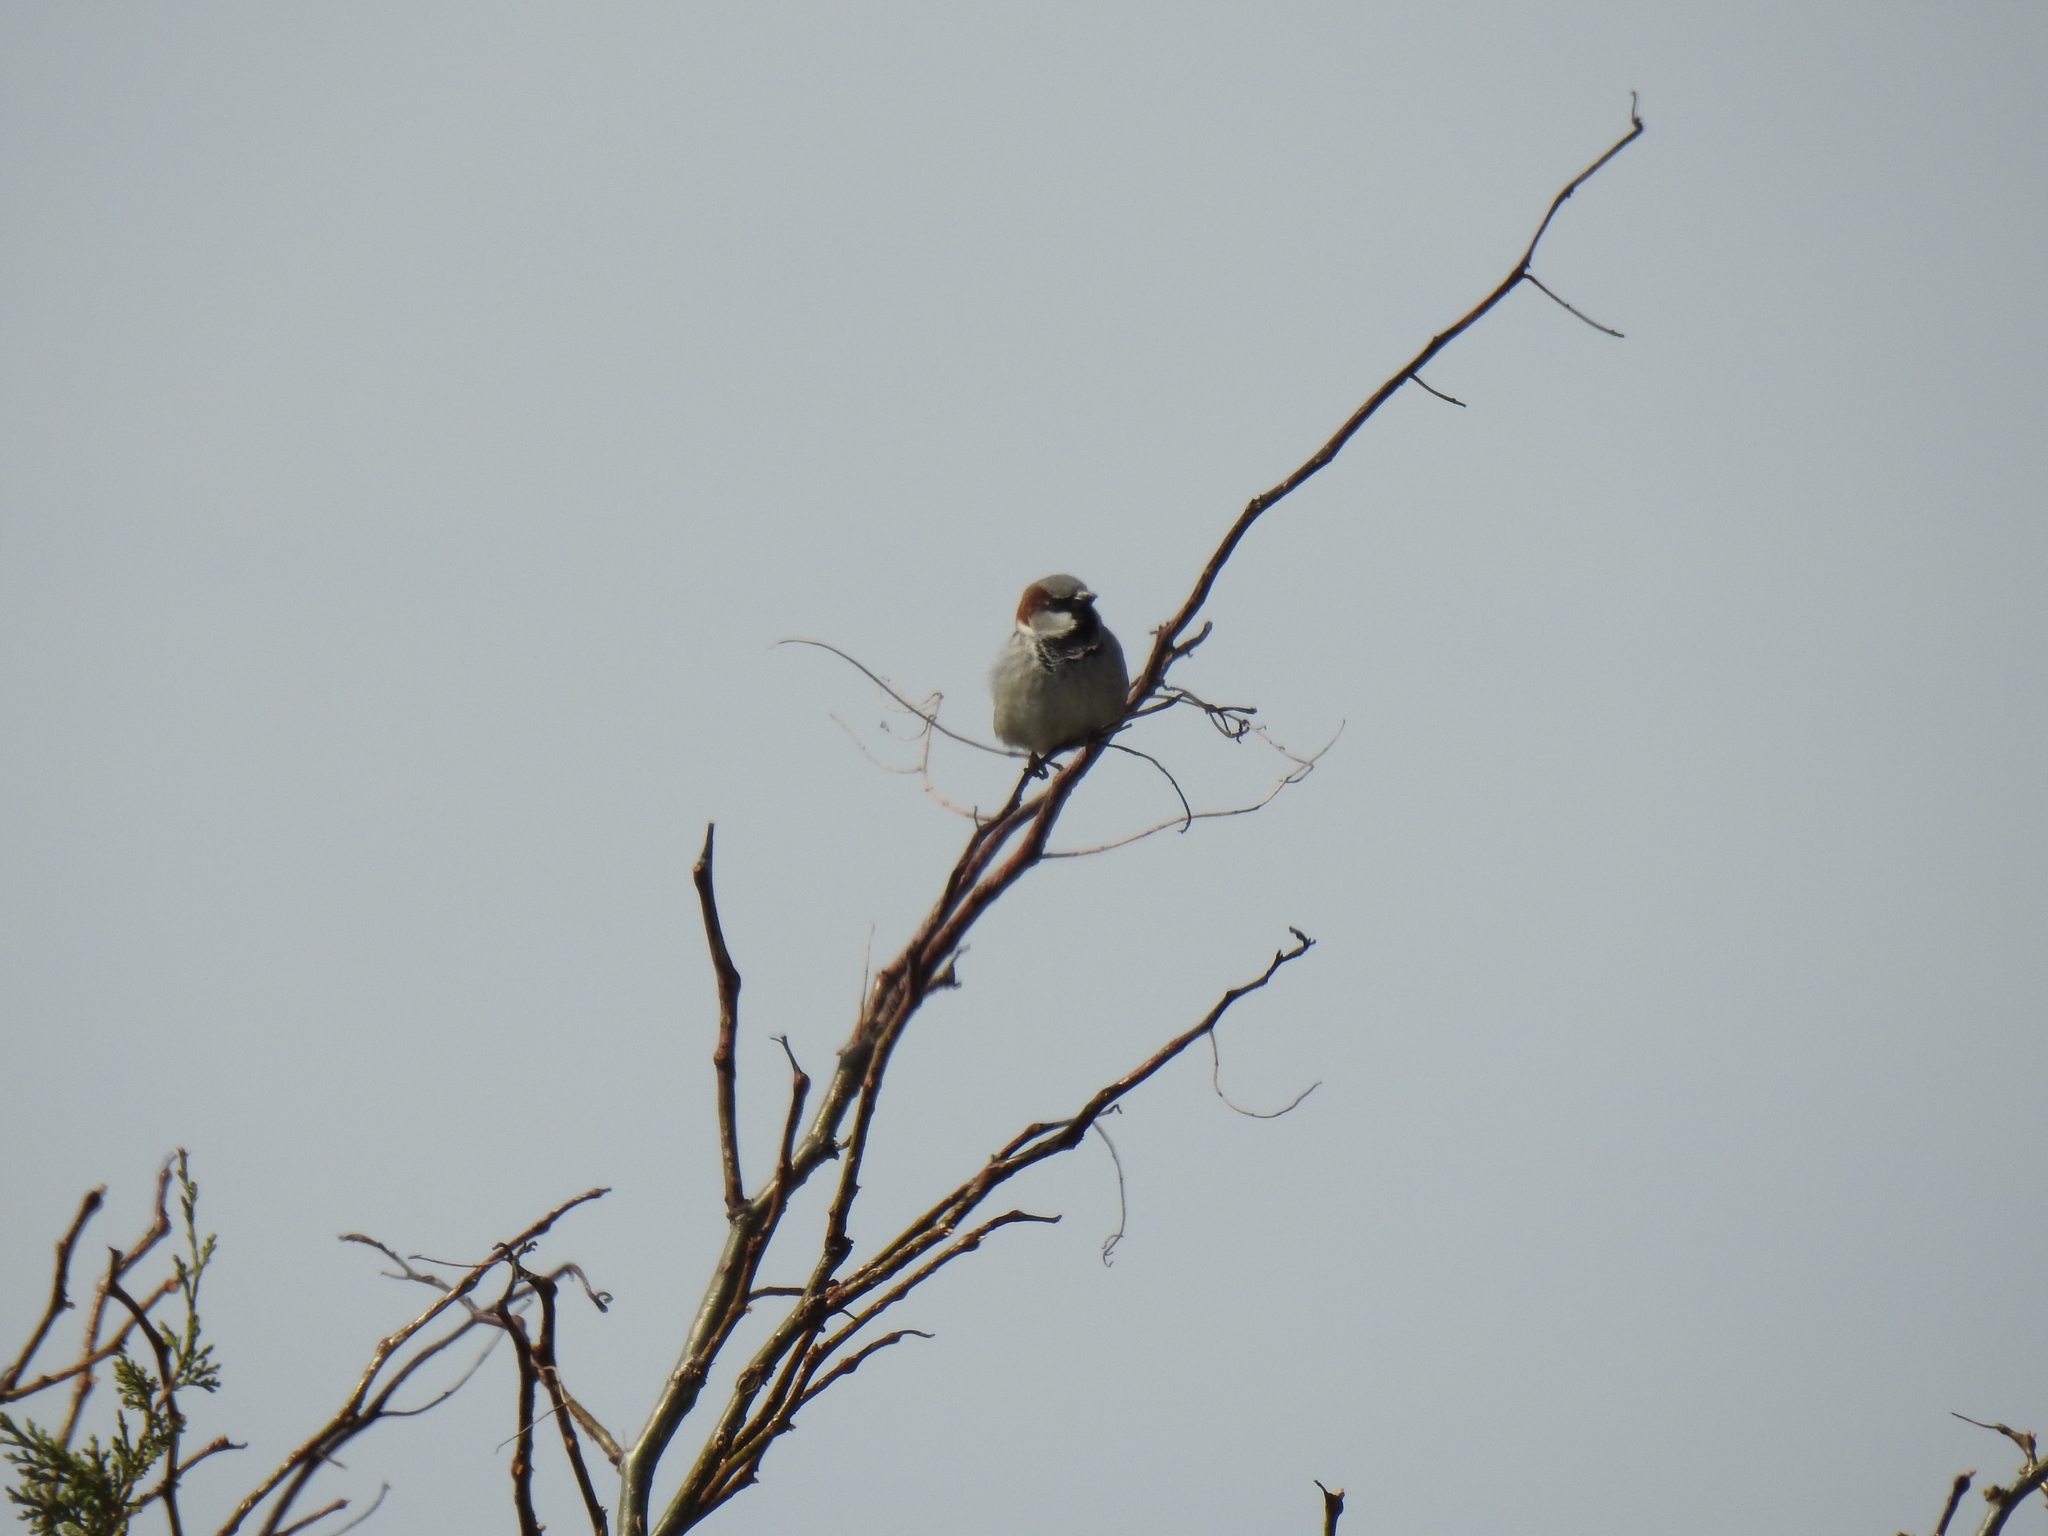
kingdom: Animalia
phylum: Chordata
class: Aves
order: Passeriformes
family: Passeridae
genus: Passer
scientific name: Passer domesticus
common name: House sparrow
